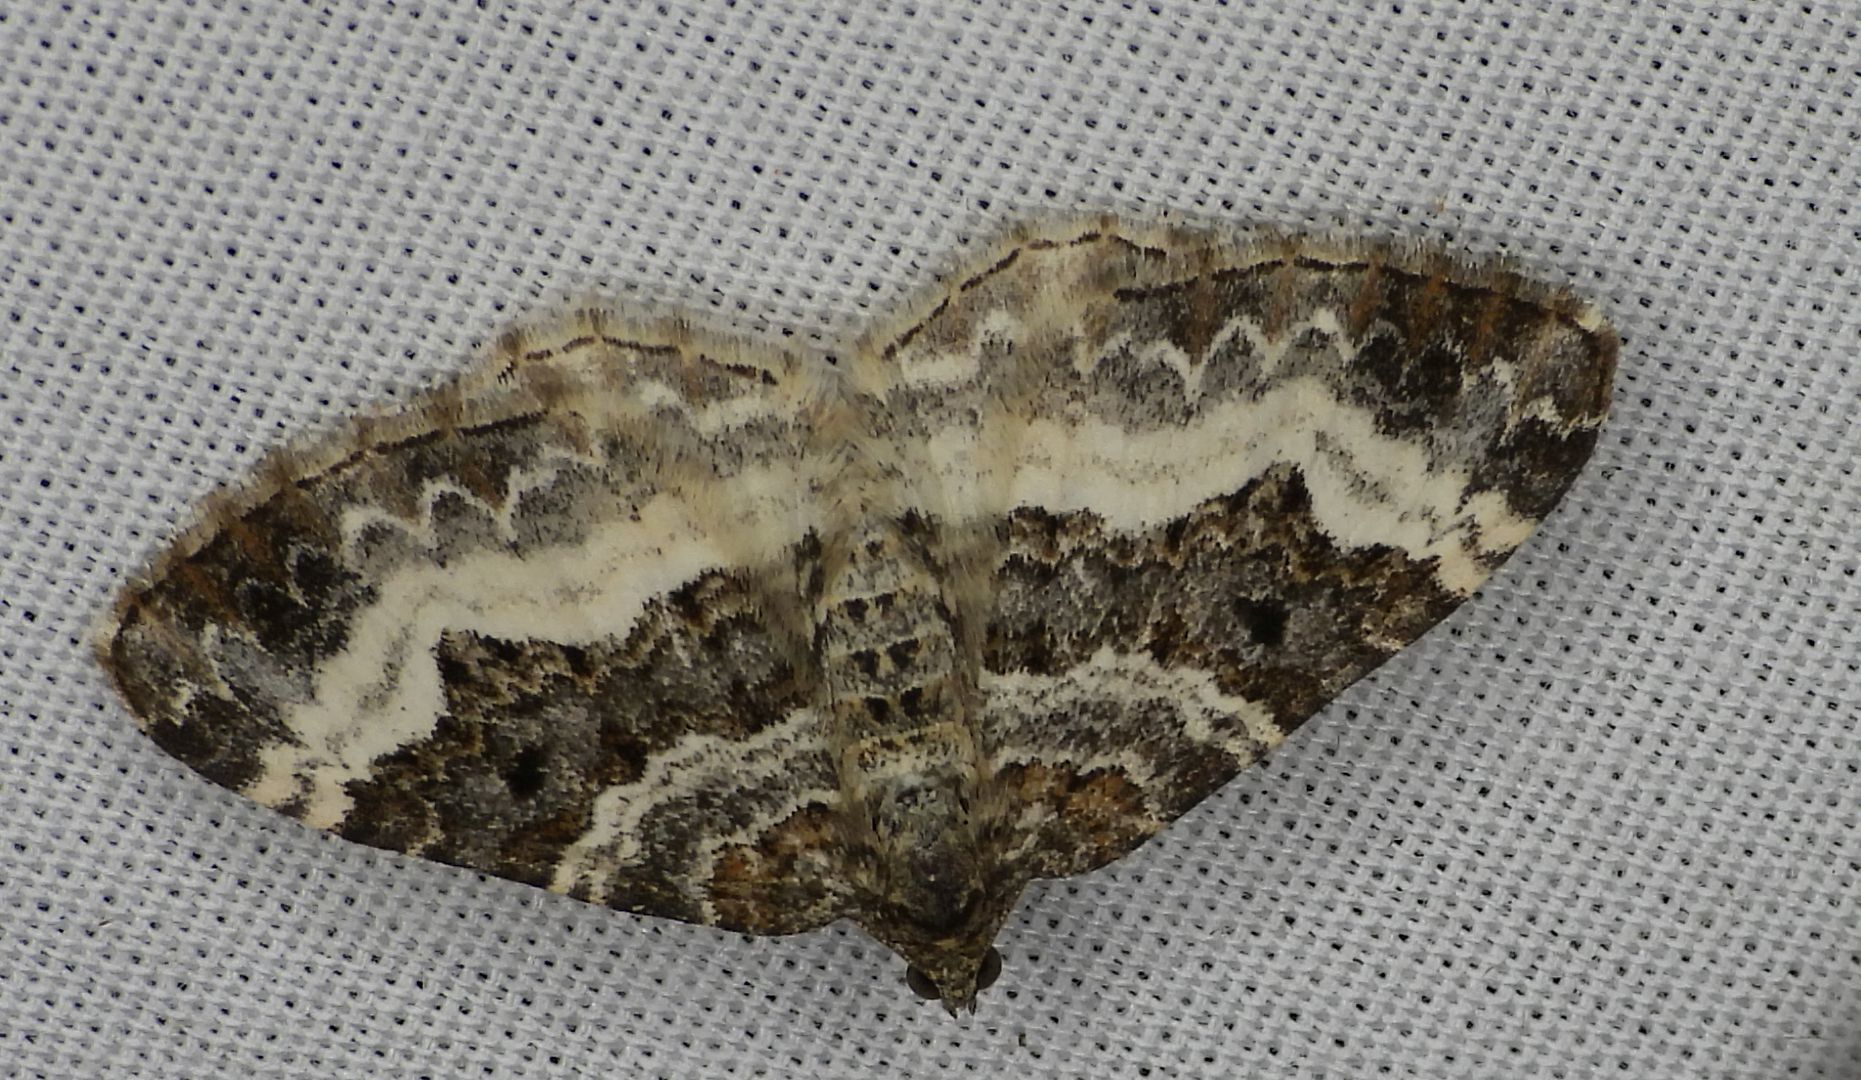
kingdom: Animalia
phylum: Arthropoda
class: Insecta
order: Lepidoptera
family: Geometridae
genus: Epirrhoe
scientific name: Epirrhoe alternata
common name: Common carpet
